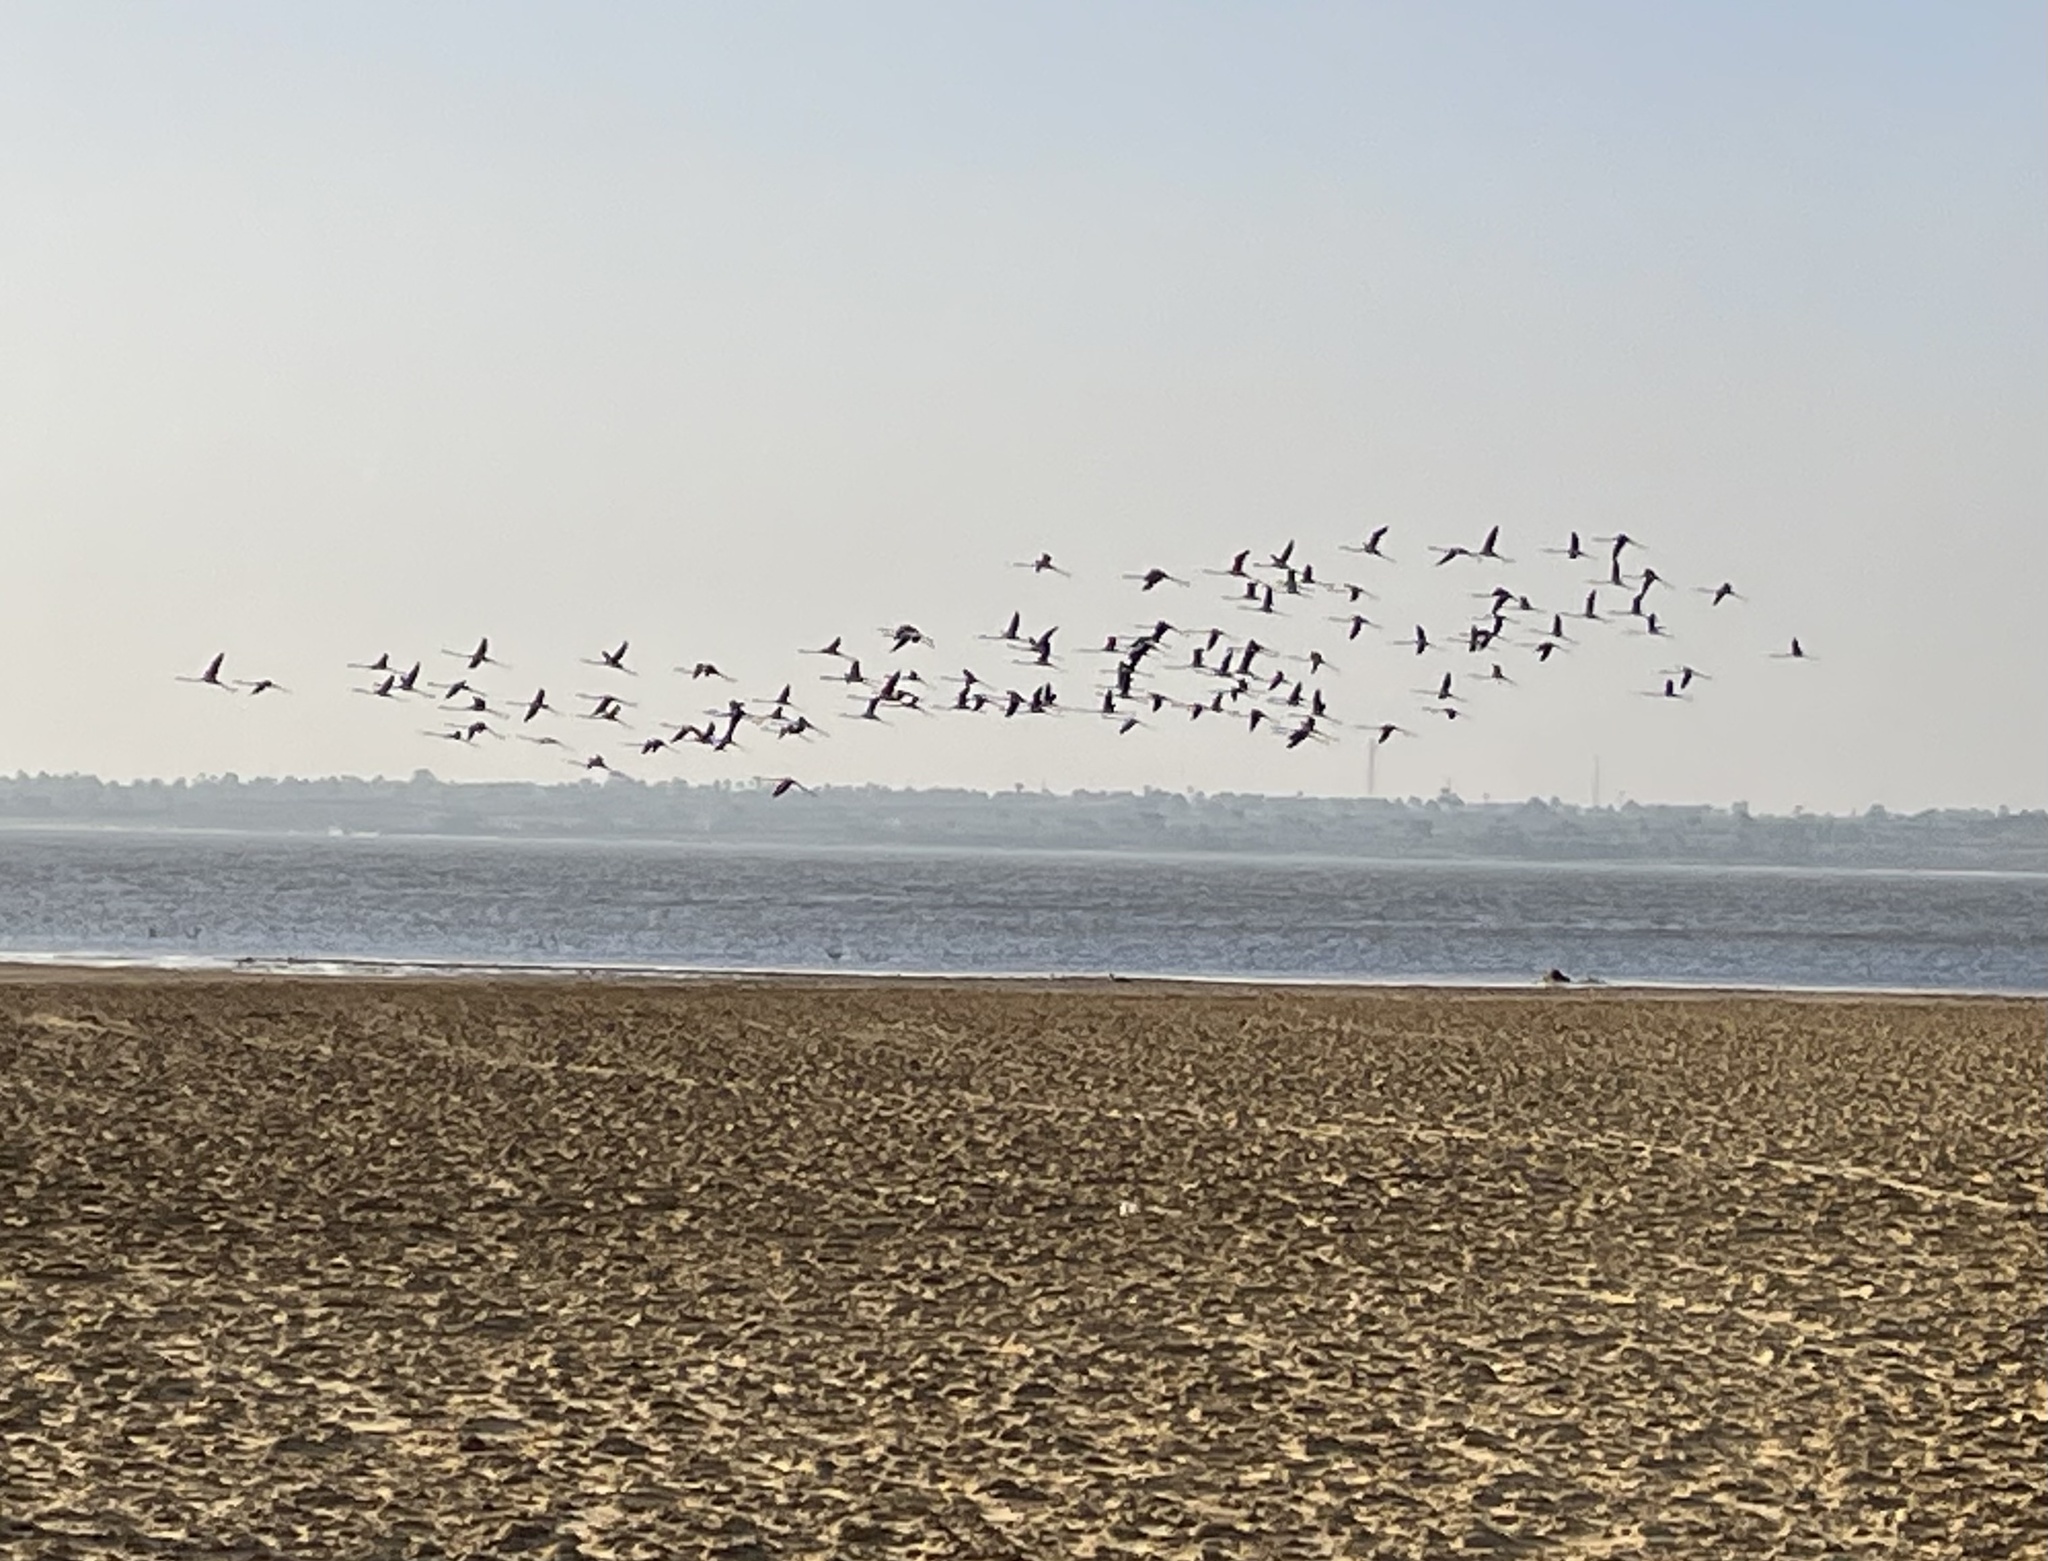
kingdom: Animalia
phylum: Chordata
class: Aves
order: Phoenicopteriformes
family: Phoenicopteridae
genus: Phoenicopterus
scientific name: Phoenicopterus roseus
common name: Greater flamingo
